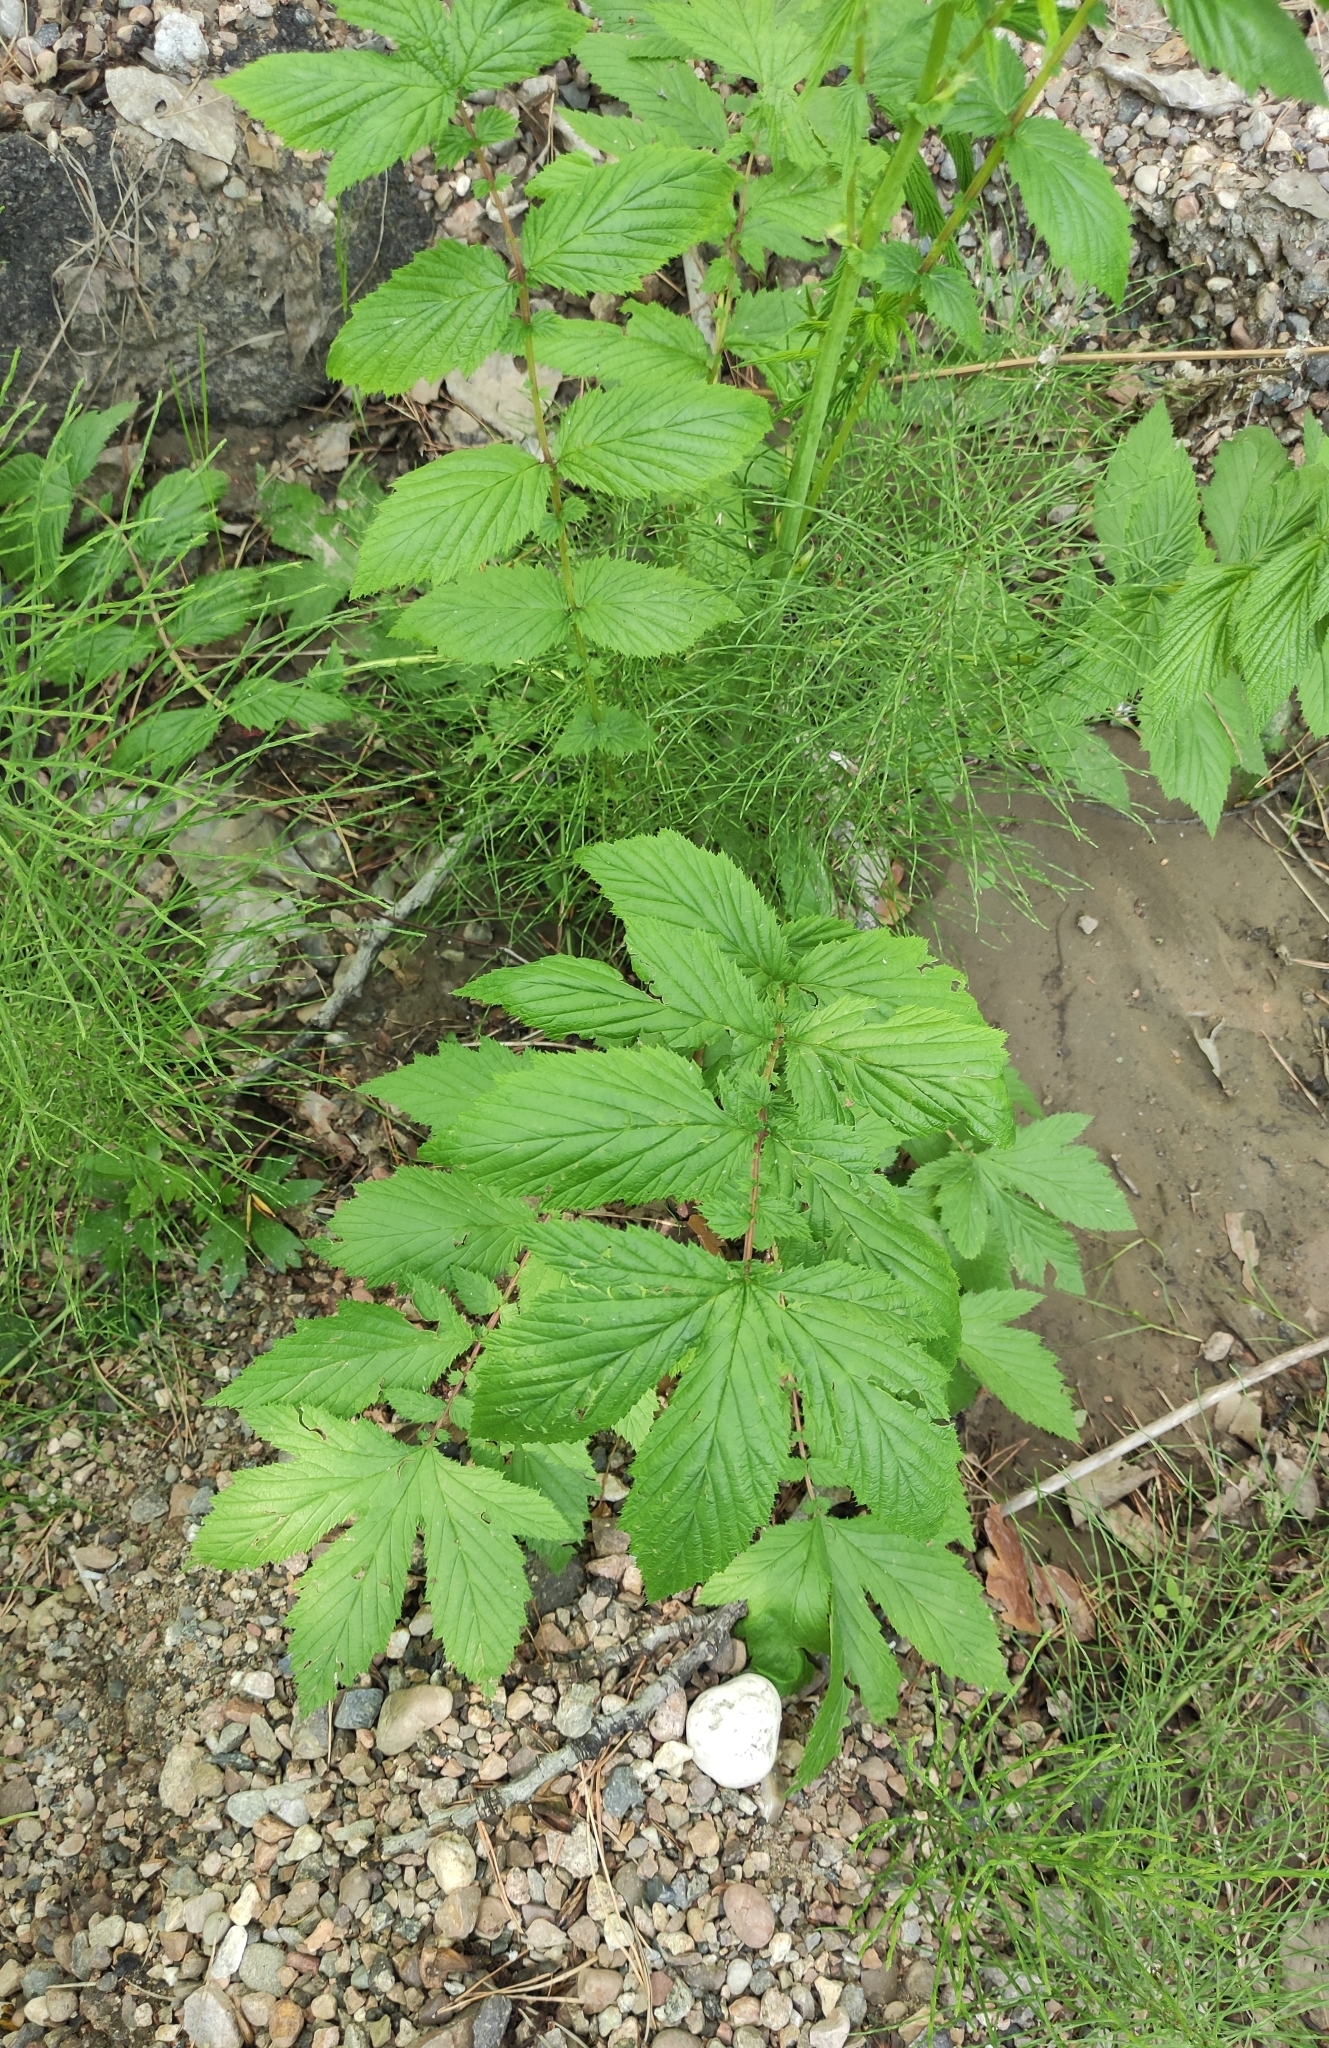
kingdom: Plantae
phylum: Tracheophyta
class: Magnoliopsida
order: Rosales
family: Rosaceae
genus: Filipendula
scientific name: Filipendula ulmaria
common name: Meadowsweet
